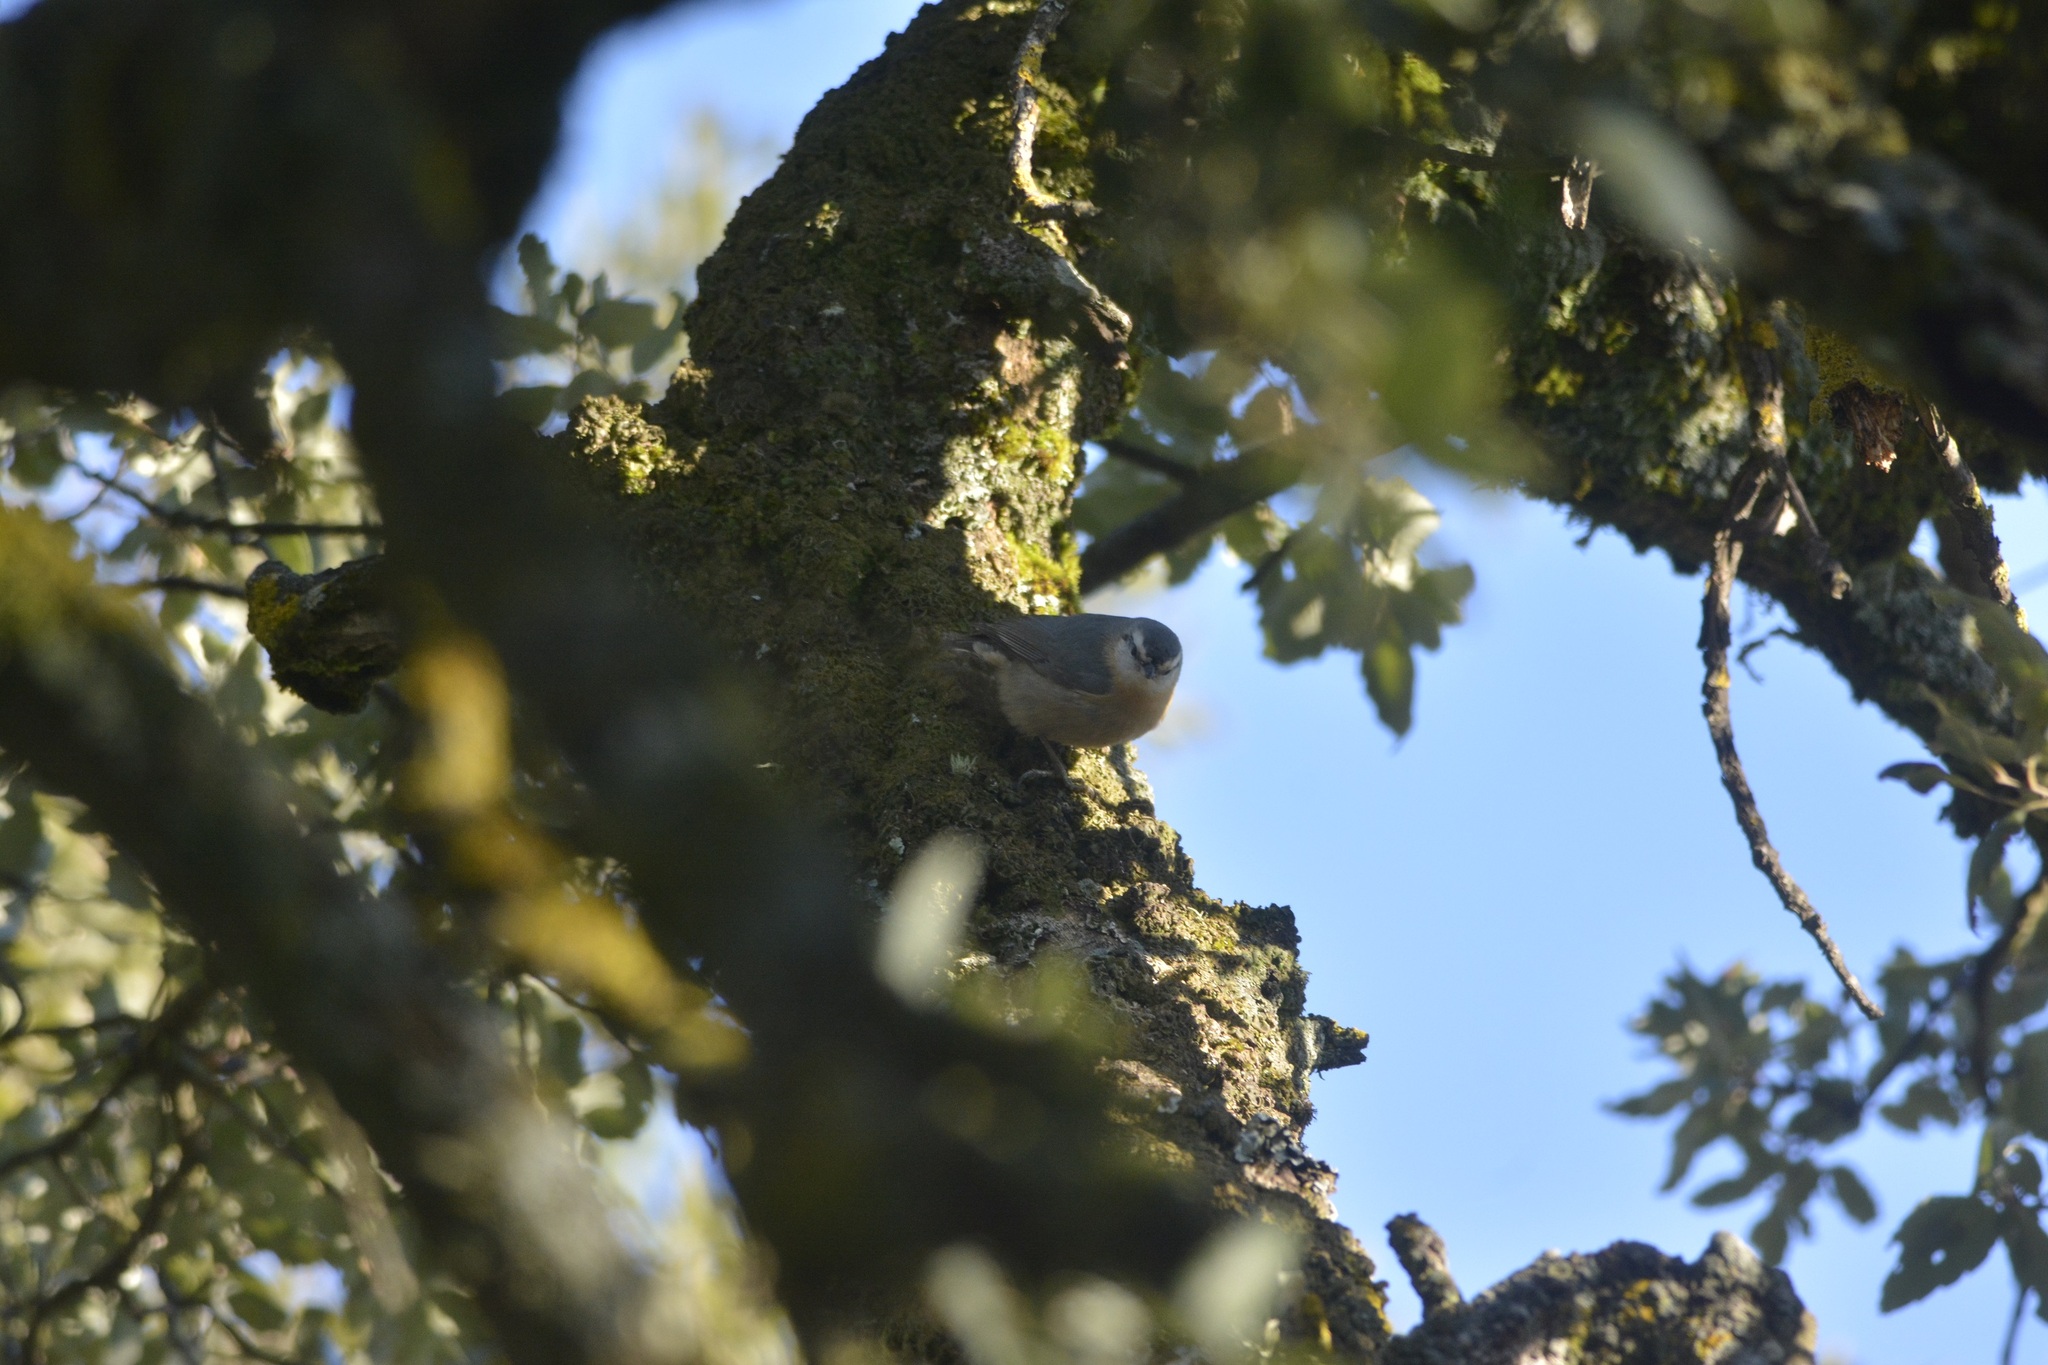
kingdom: Animalia
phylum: Chordata
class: Aves
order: Passeriformes
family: Sittidae
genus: Sitta
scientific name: Sitta ledanti
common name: Algerian nuthatch
